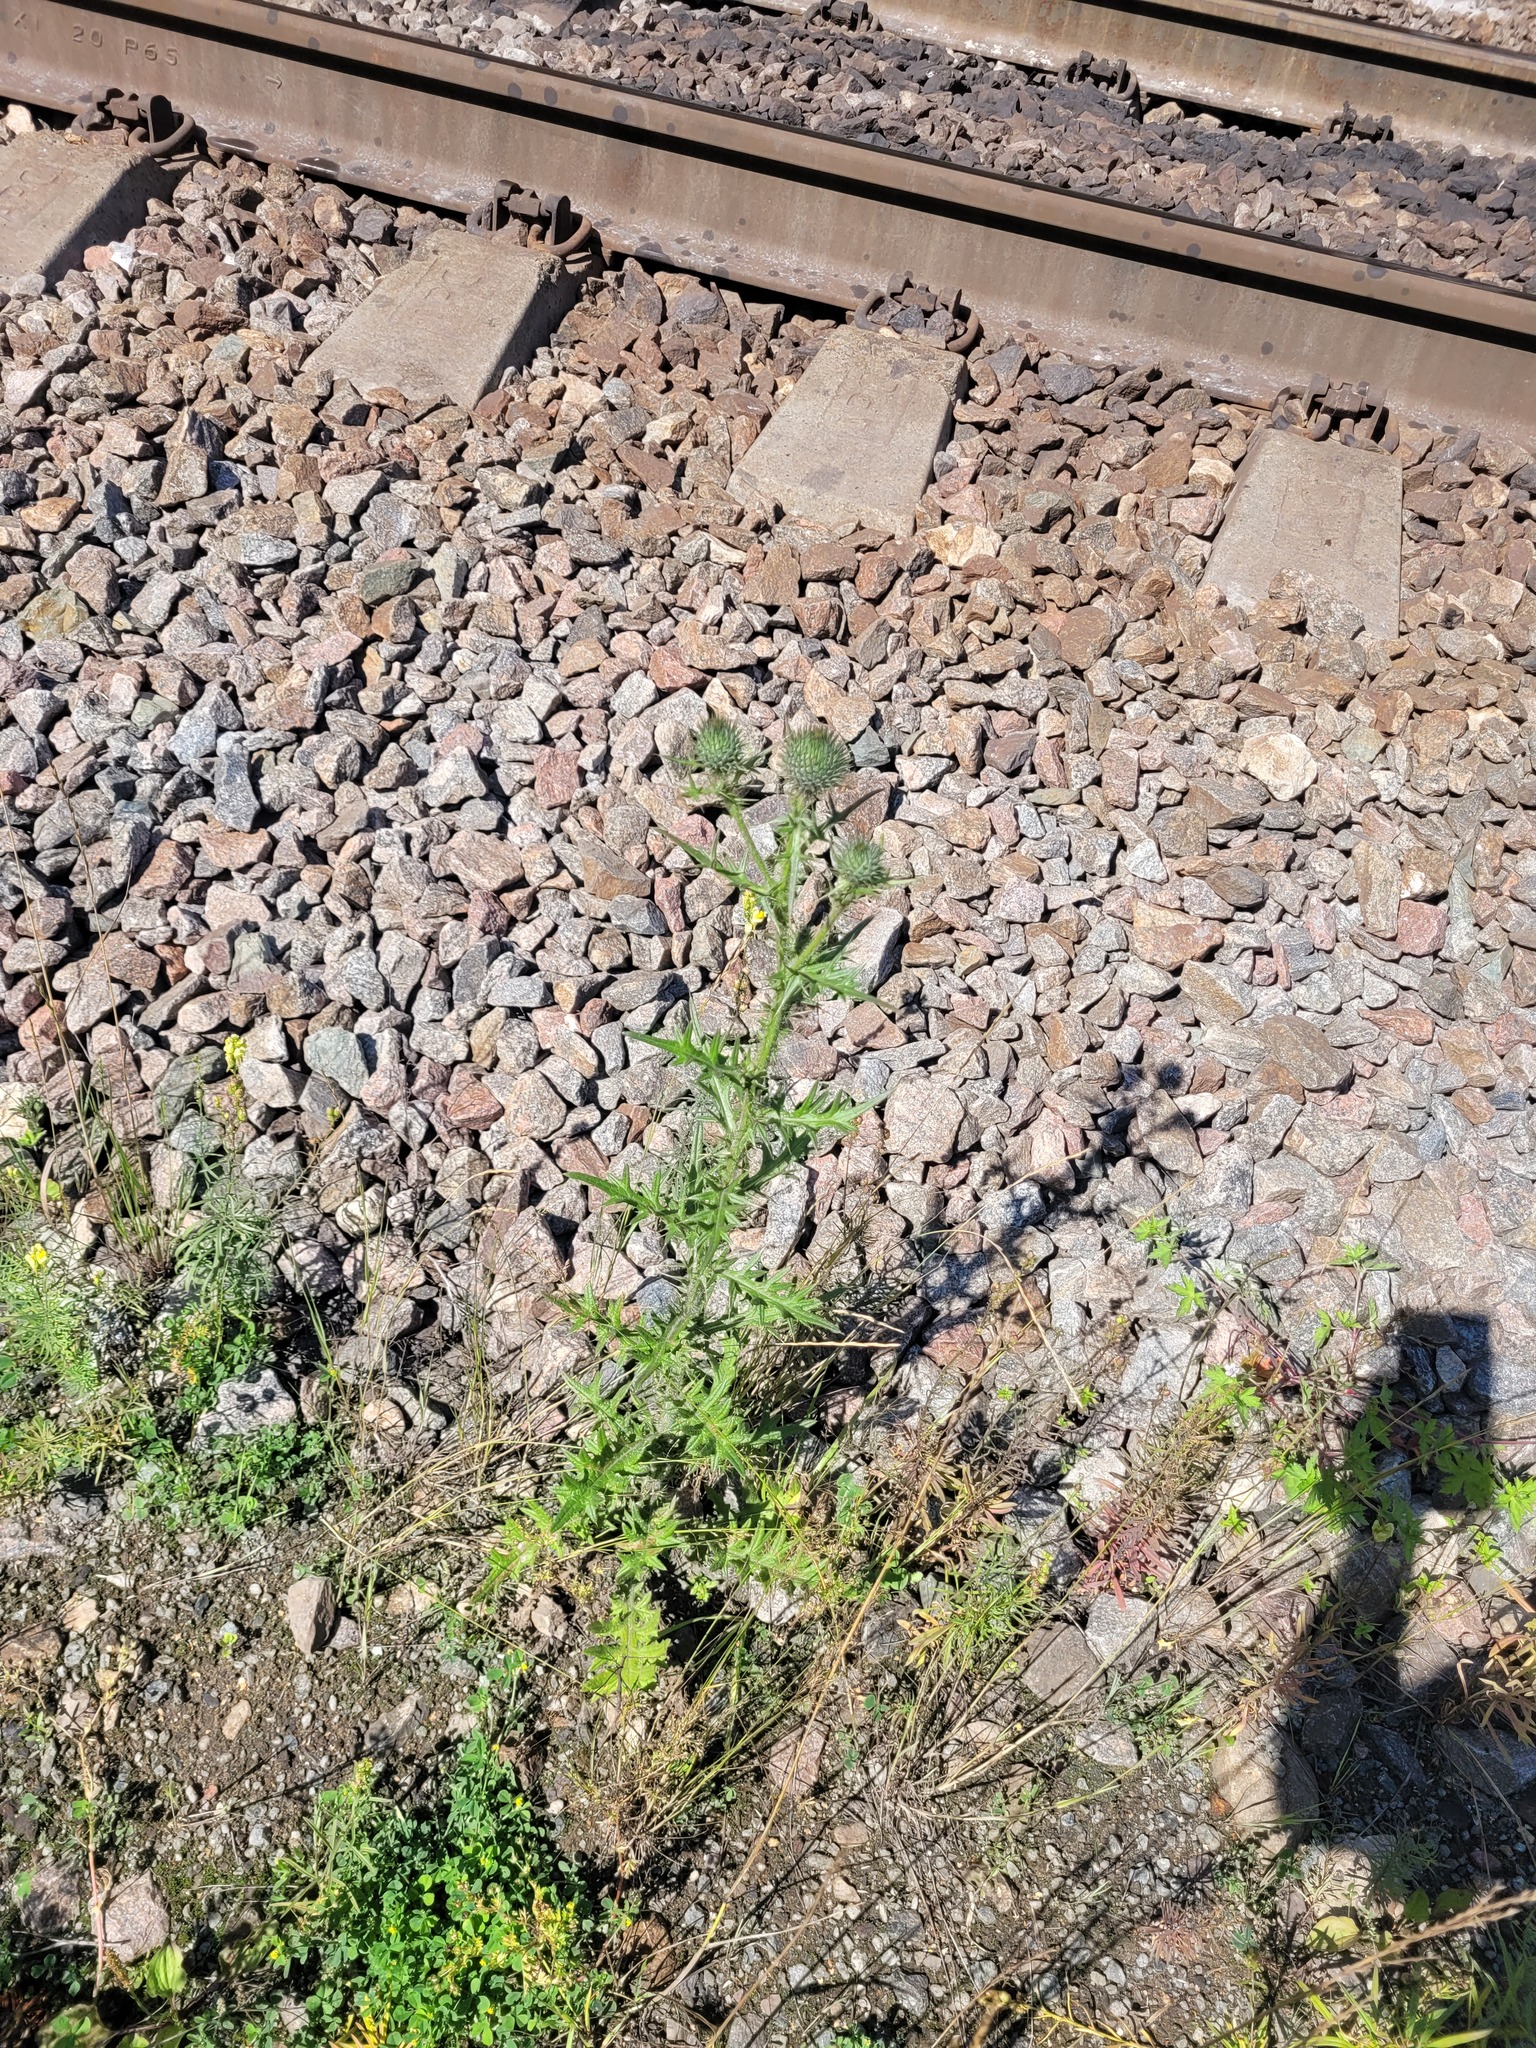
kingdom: Plantae
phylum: Tracheophyta
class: Magnoliopsida
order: Asterales
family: Asteraceae
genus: Cirsium
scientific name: Cirsium vulgare
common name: Bull thistle
